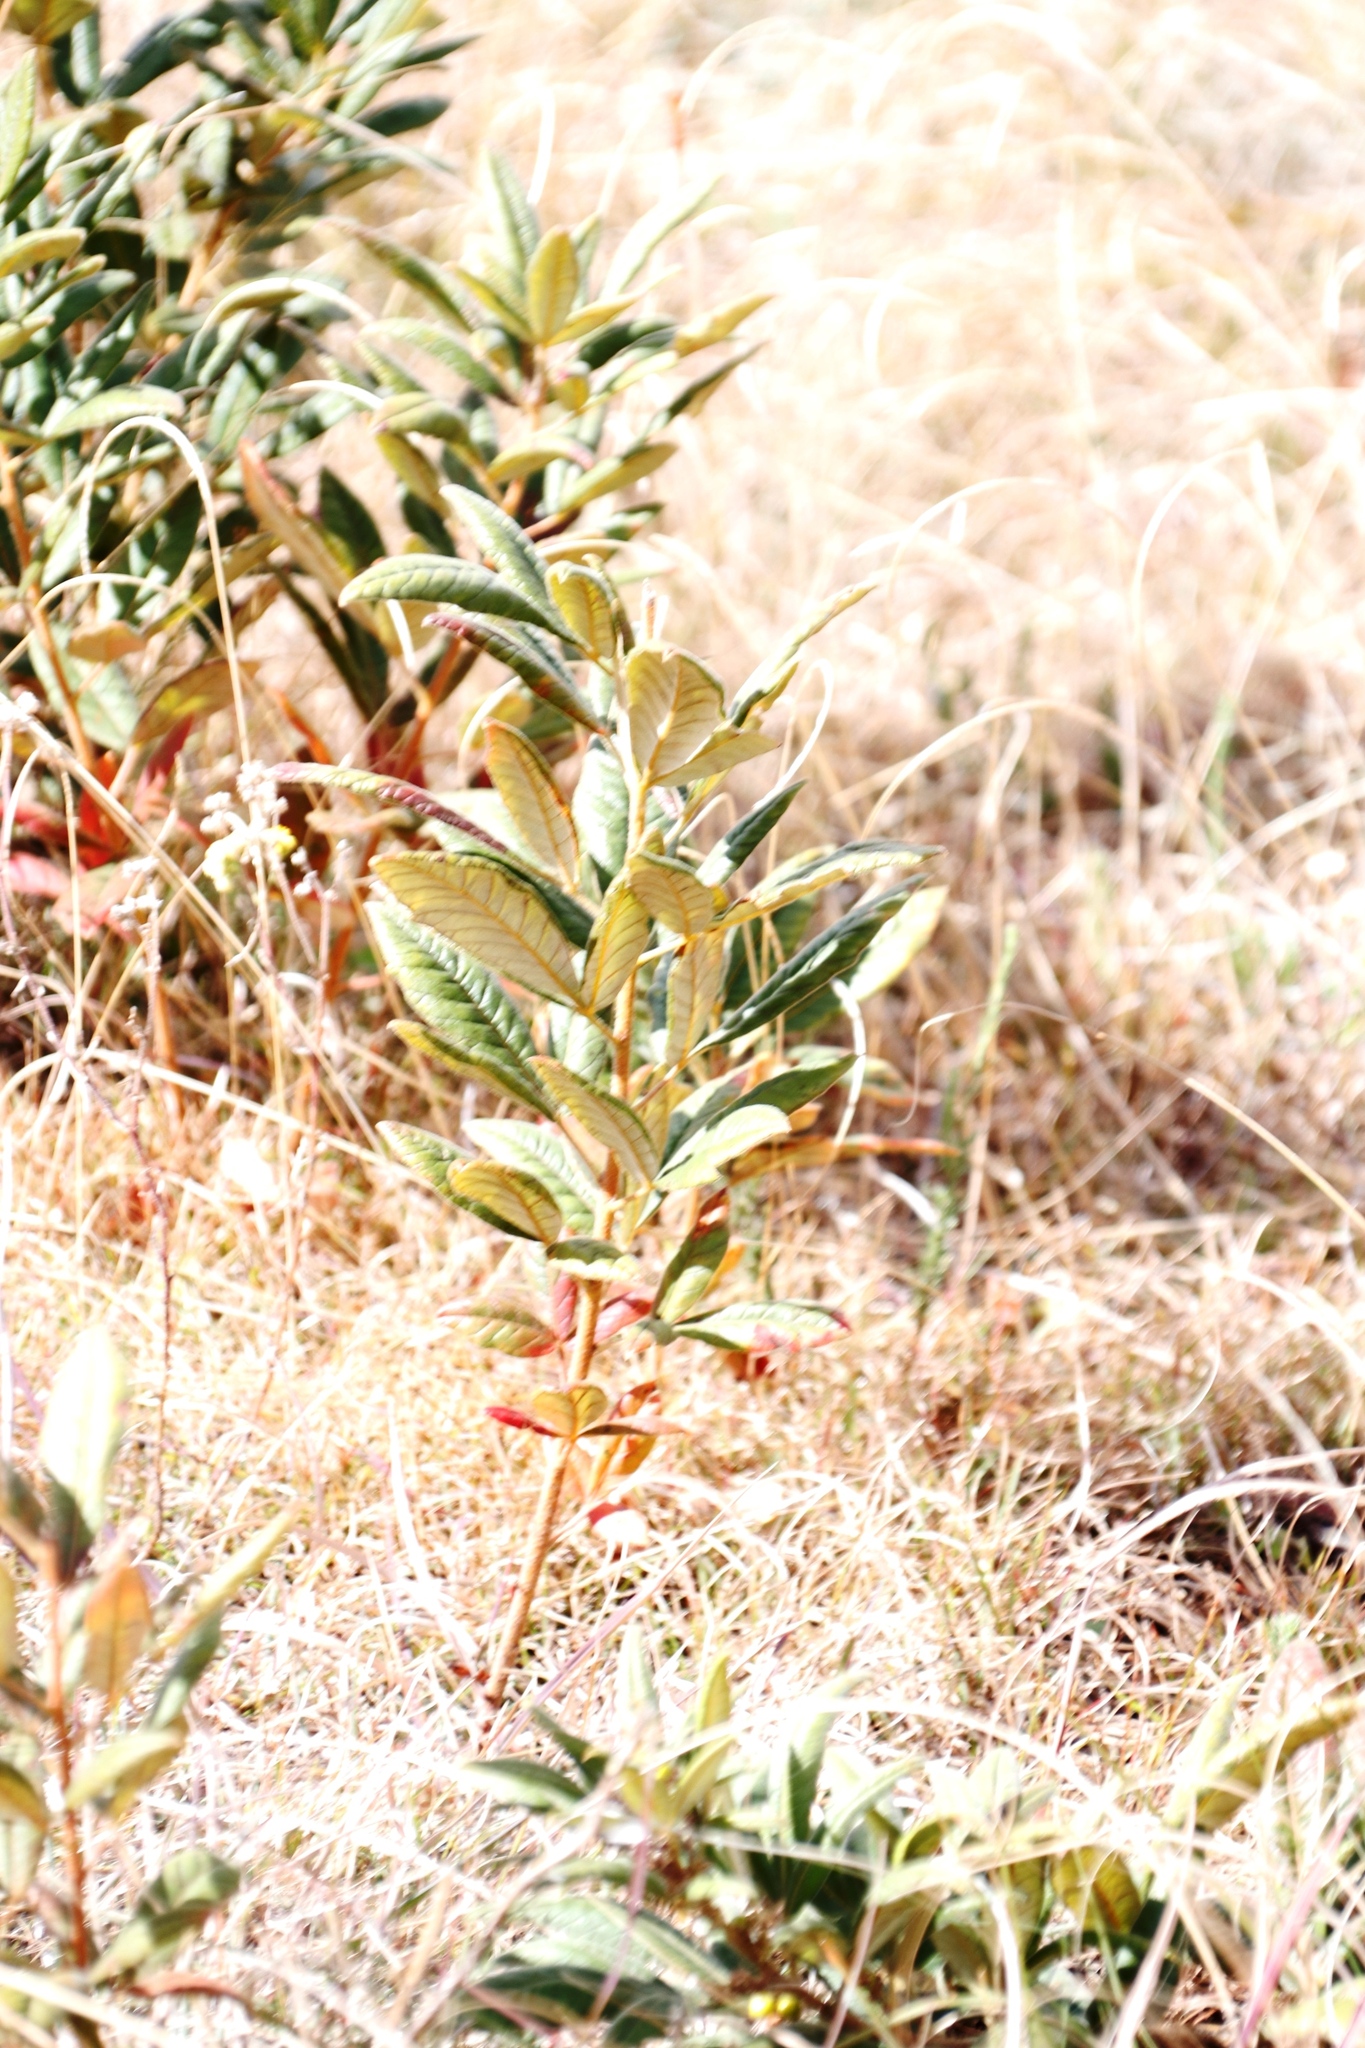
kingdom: Plantae
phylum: Tracheophyta
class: Magnoliopsida
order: Sapindales
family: Anacardiaceae
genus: Searsia
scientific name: Searsia discolor
